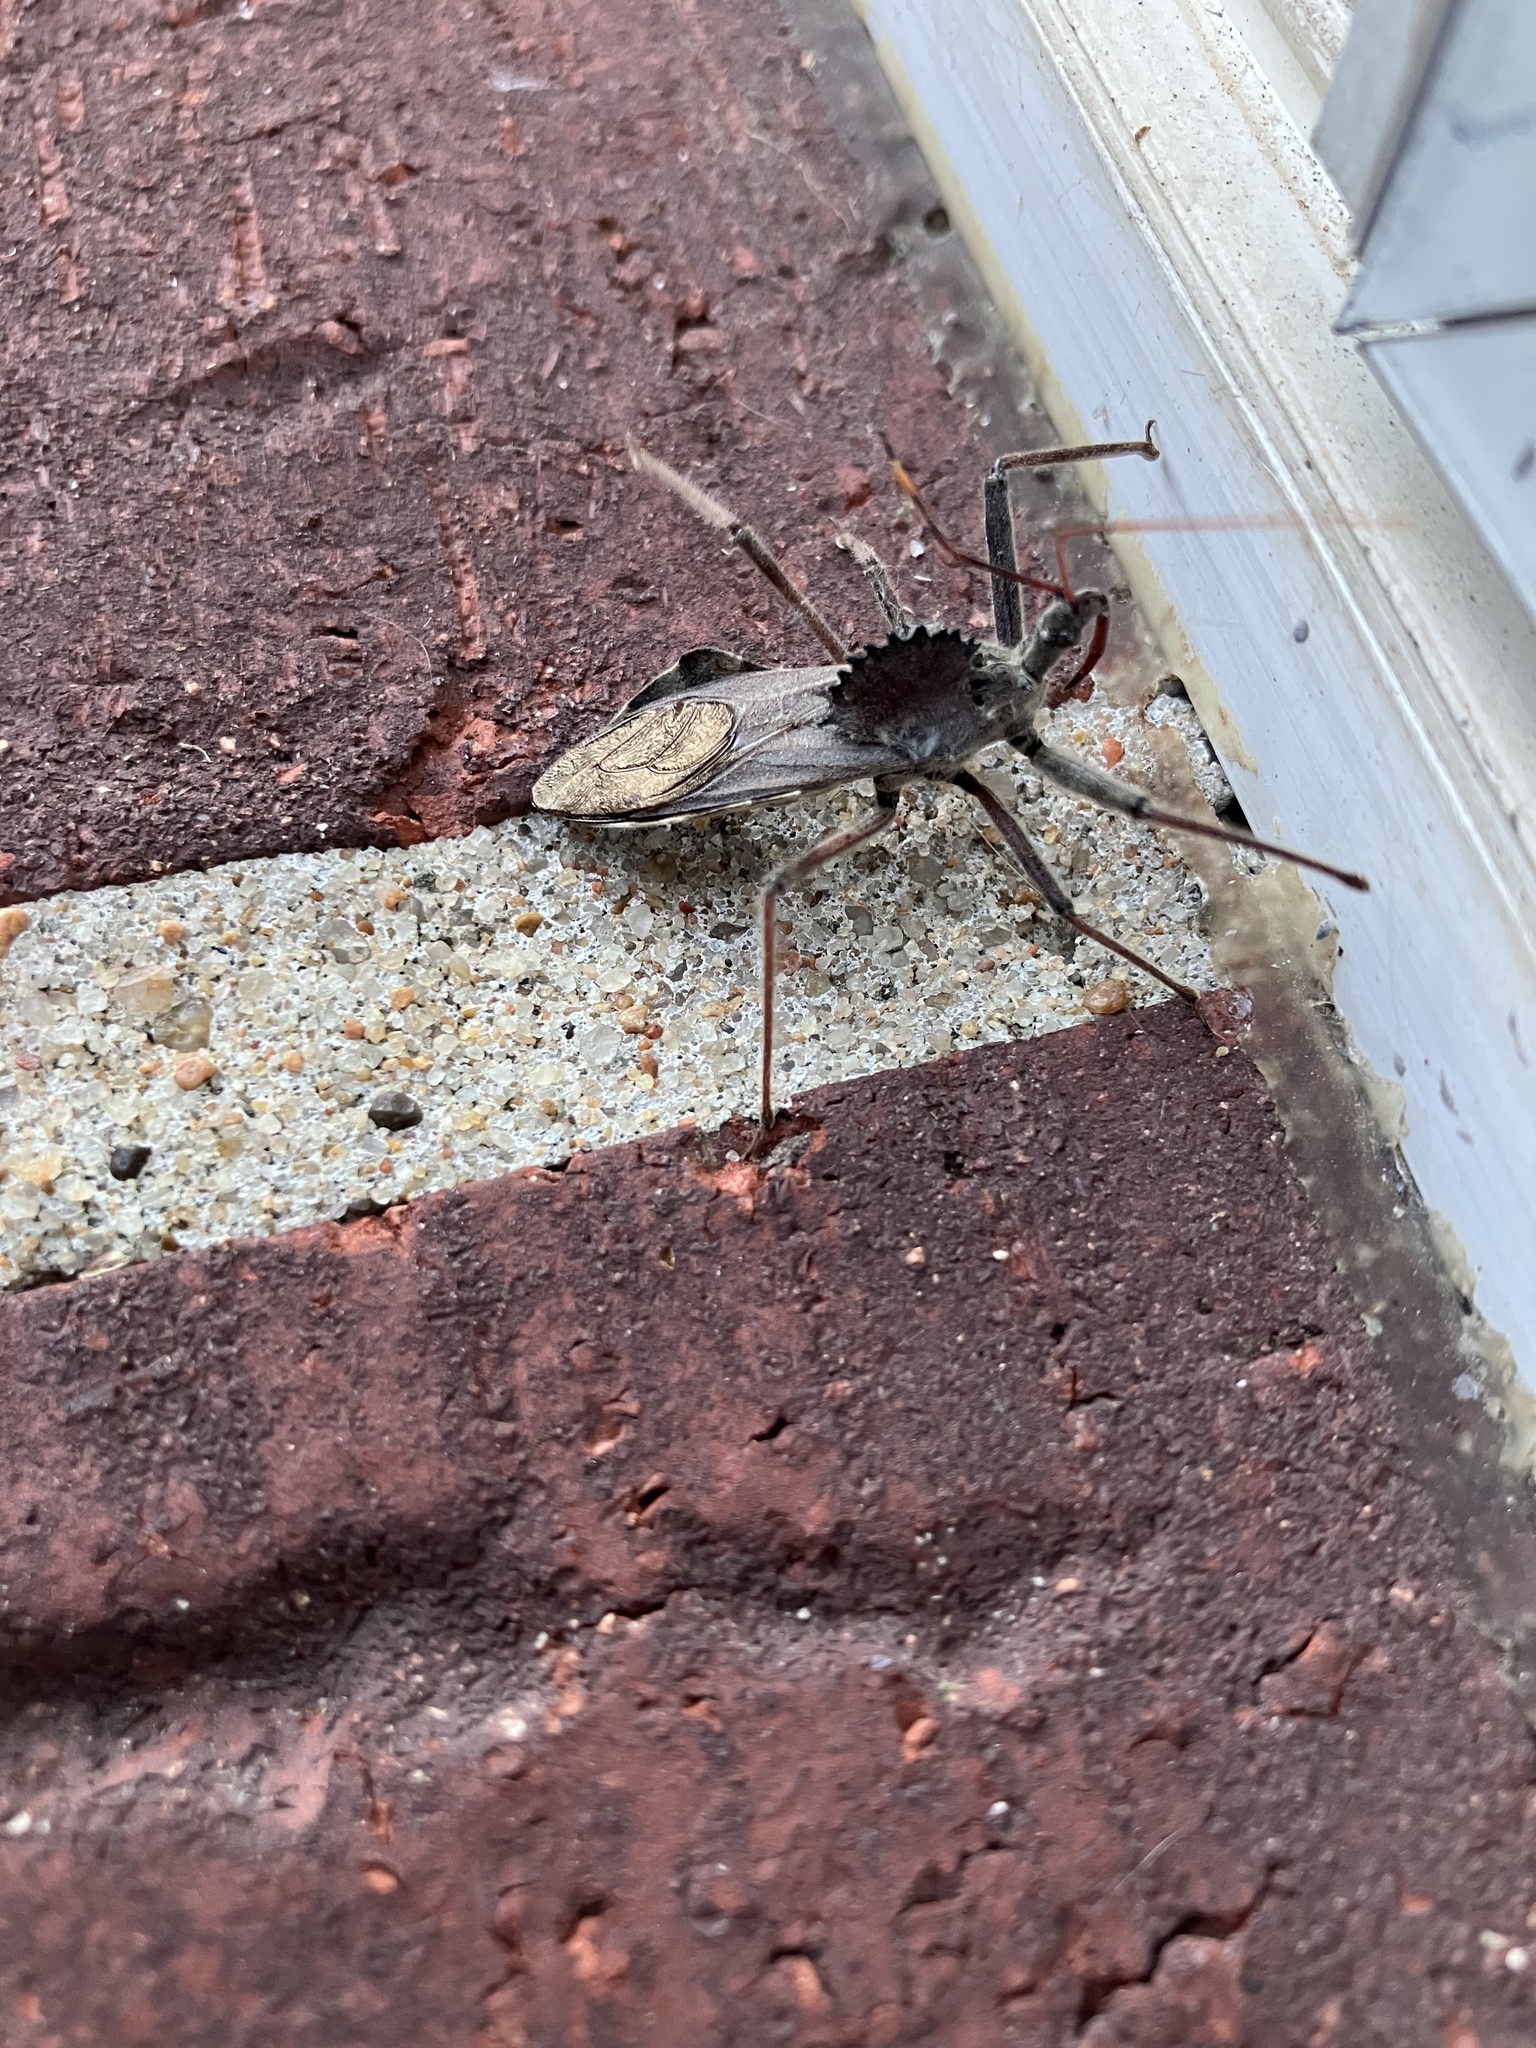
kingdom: Animalia
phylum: Arthropoda
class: Insecta
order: Hemiptera
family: Reduviidae
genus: Arilus
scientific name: Arilus cristatus
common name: North american wheel bug
